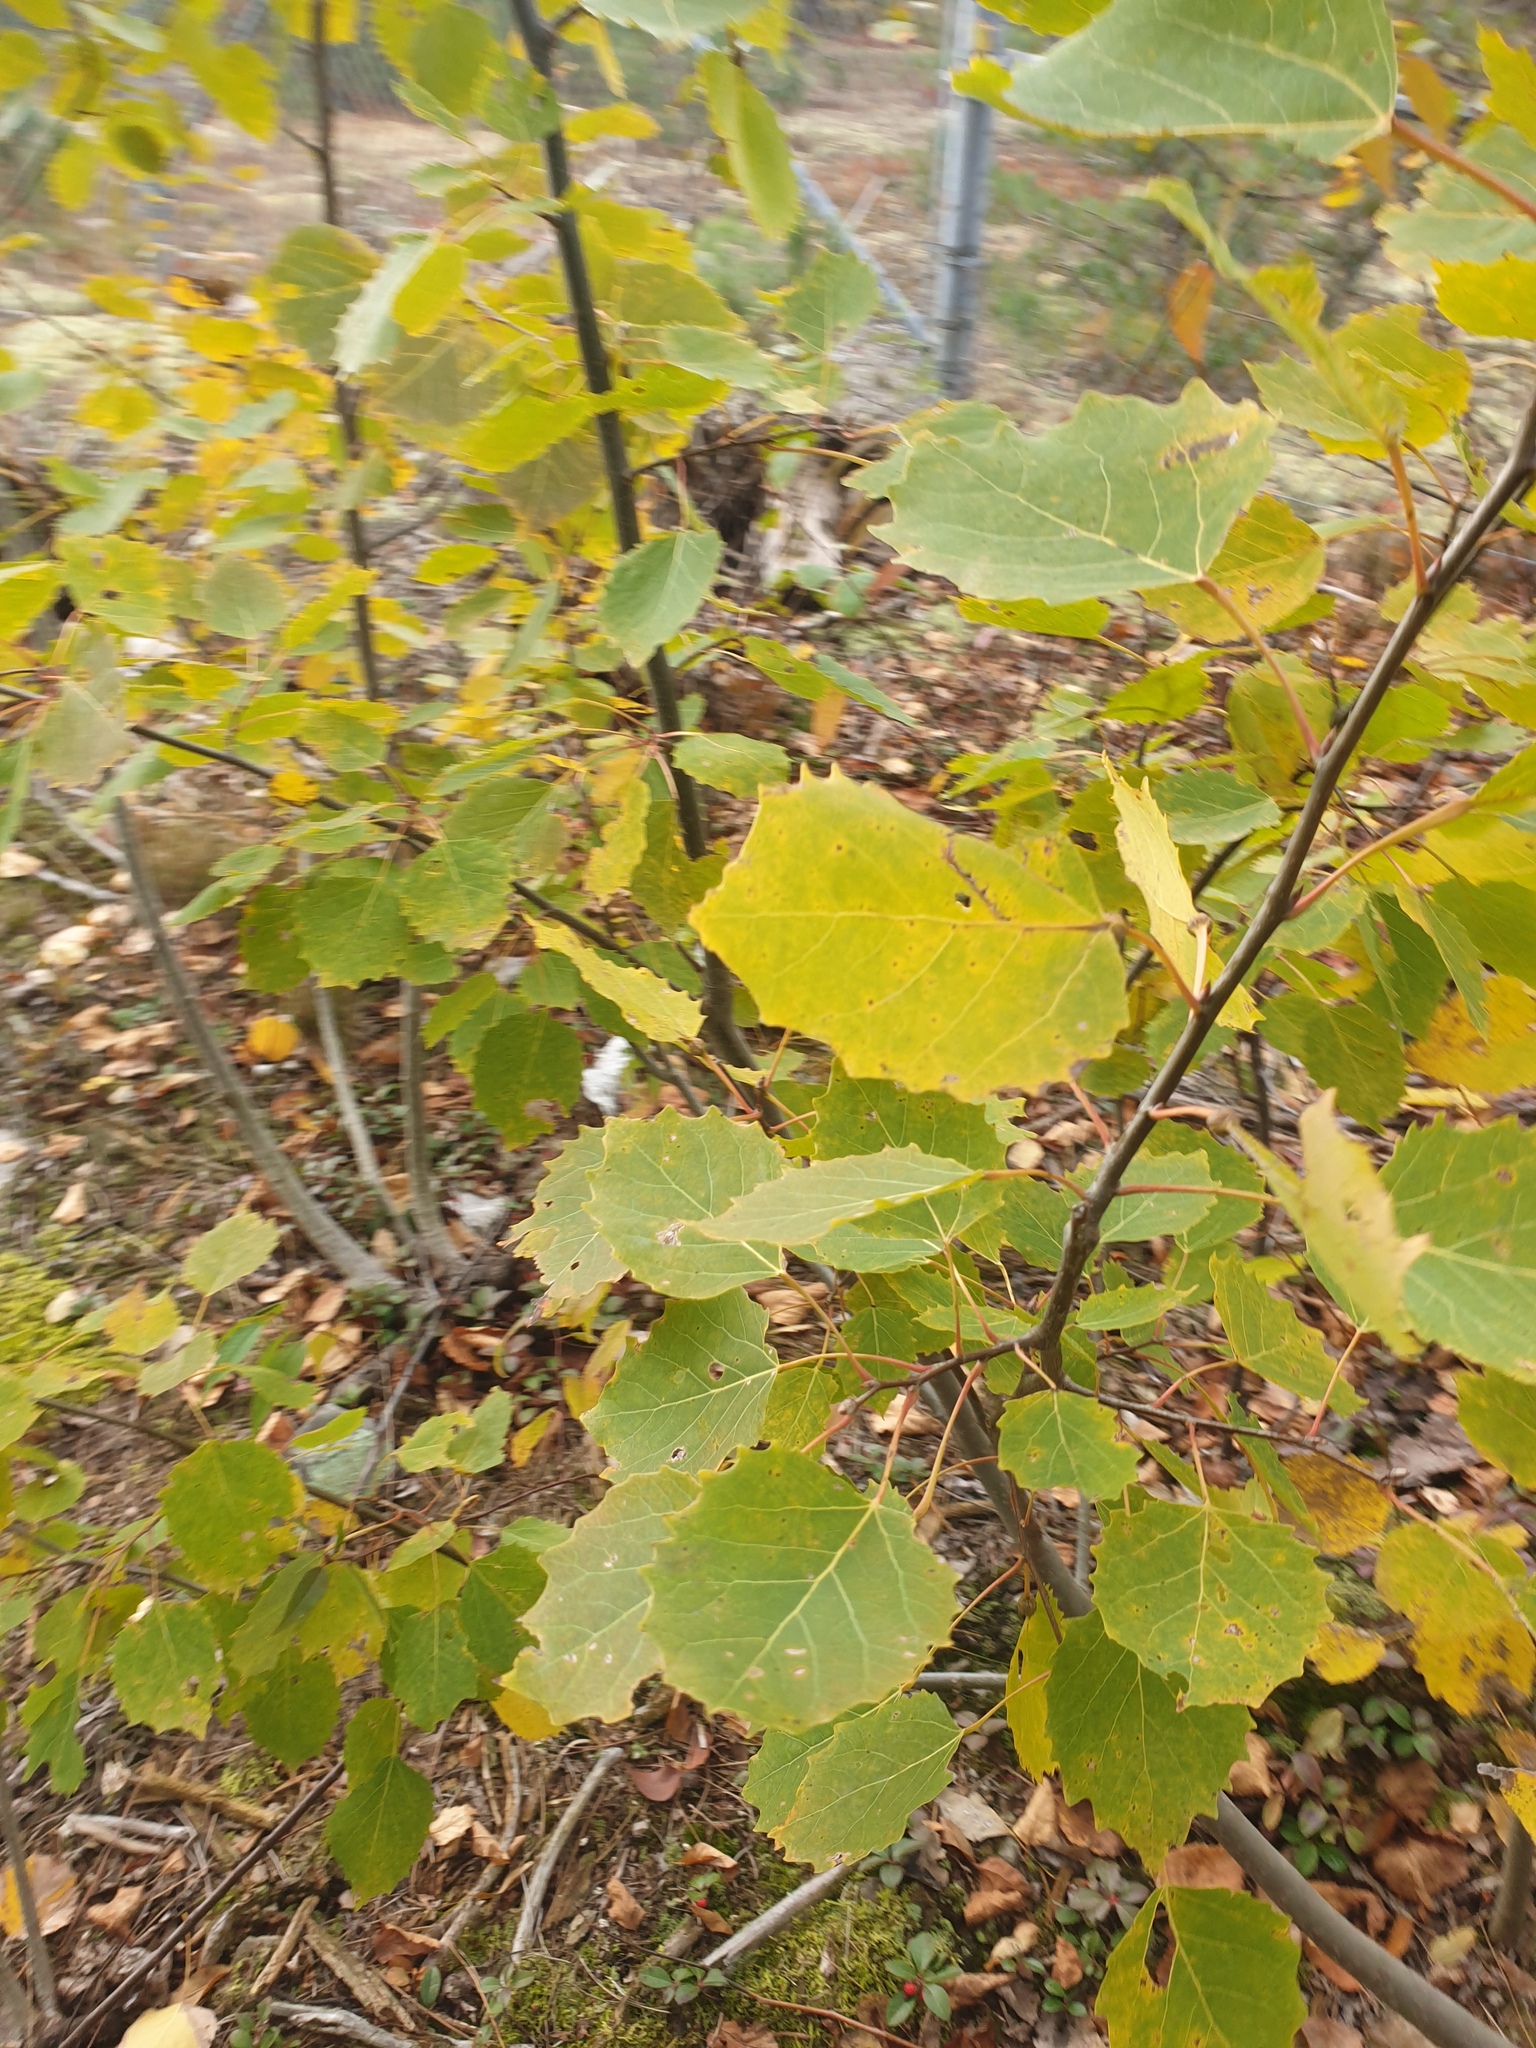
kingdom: Plantae
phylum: Tracheophyta
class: Magnoliopsida
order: Malpighiales
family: Salicaceae
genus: Populus
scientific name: Populus grandidentata
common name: Bigtooth aspen
